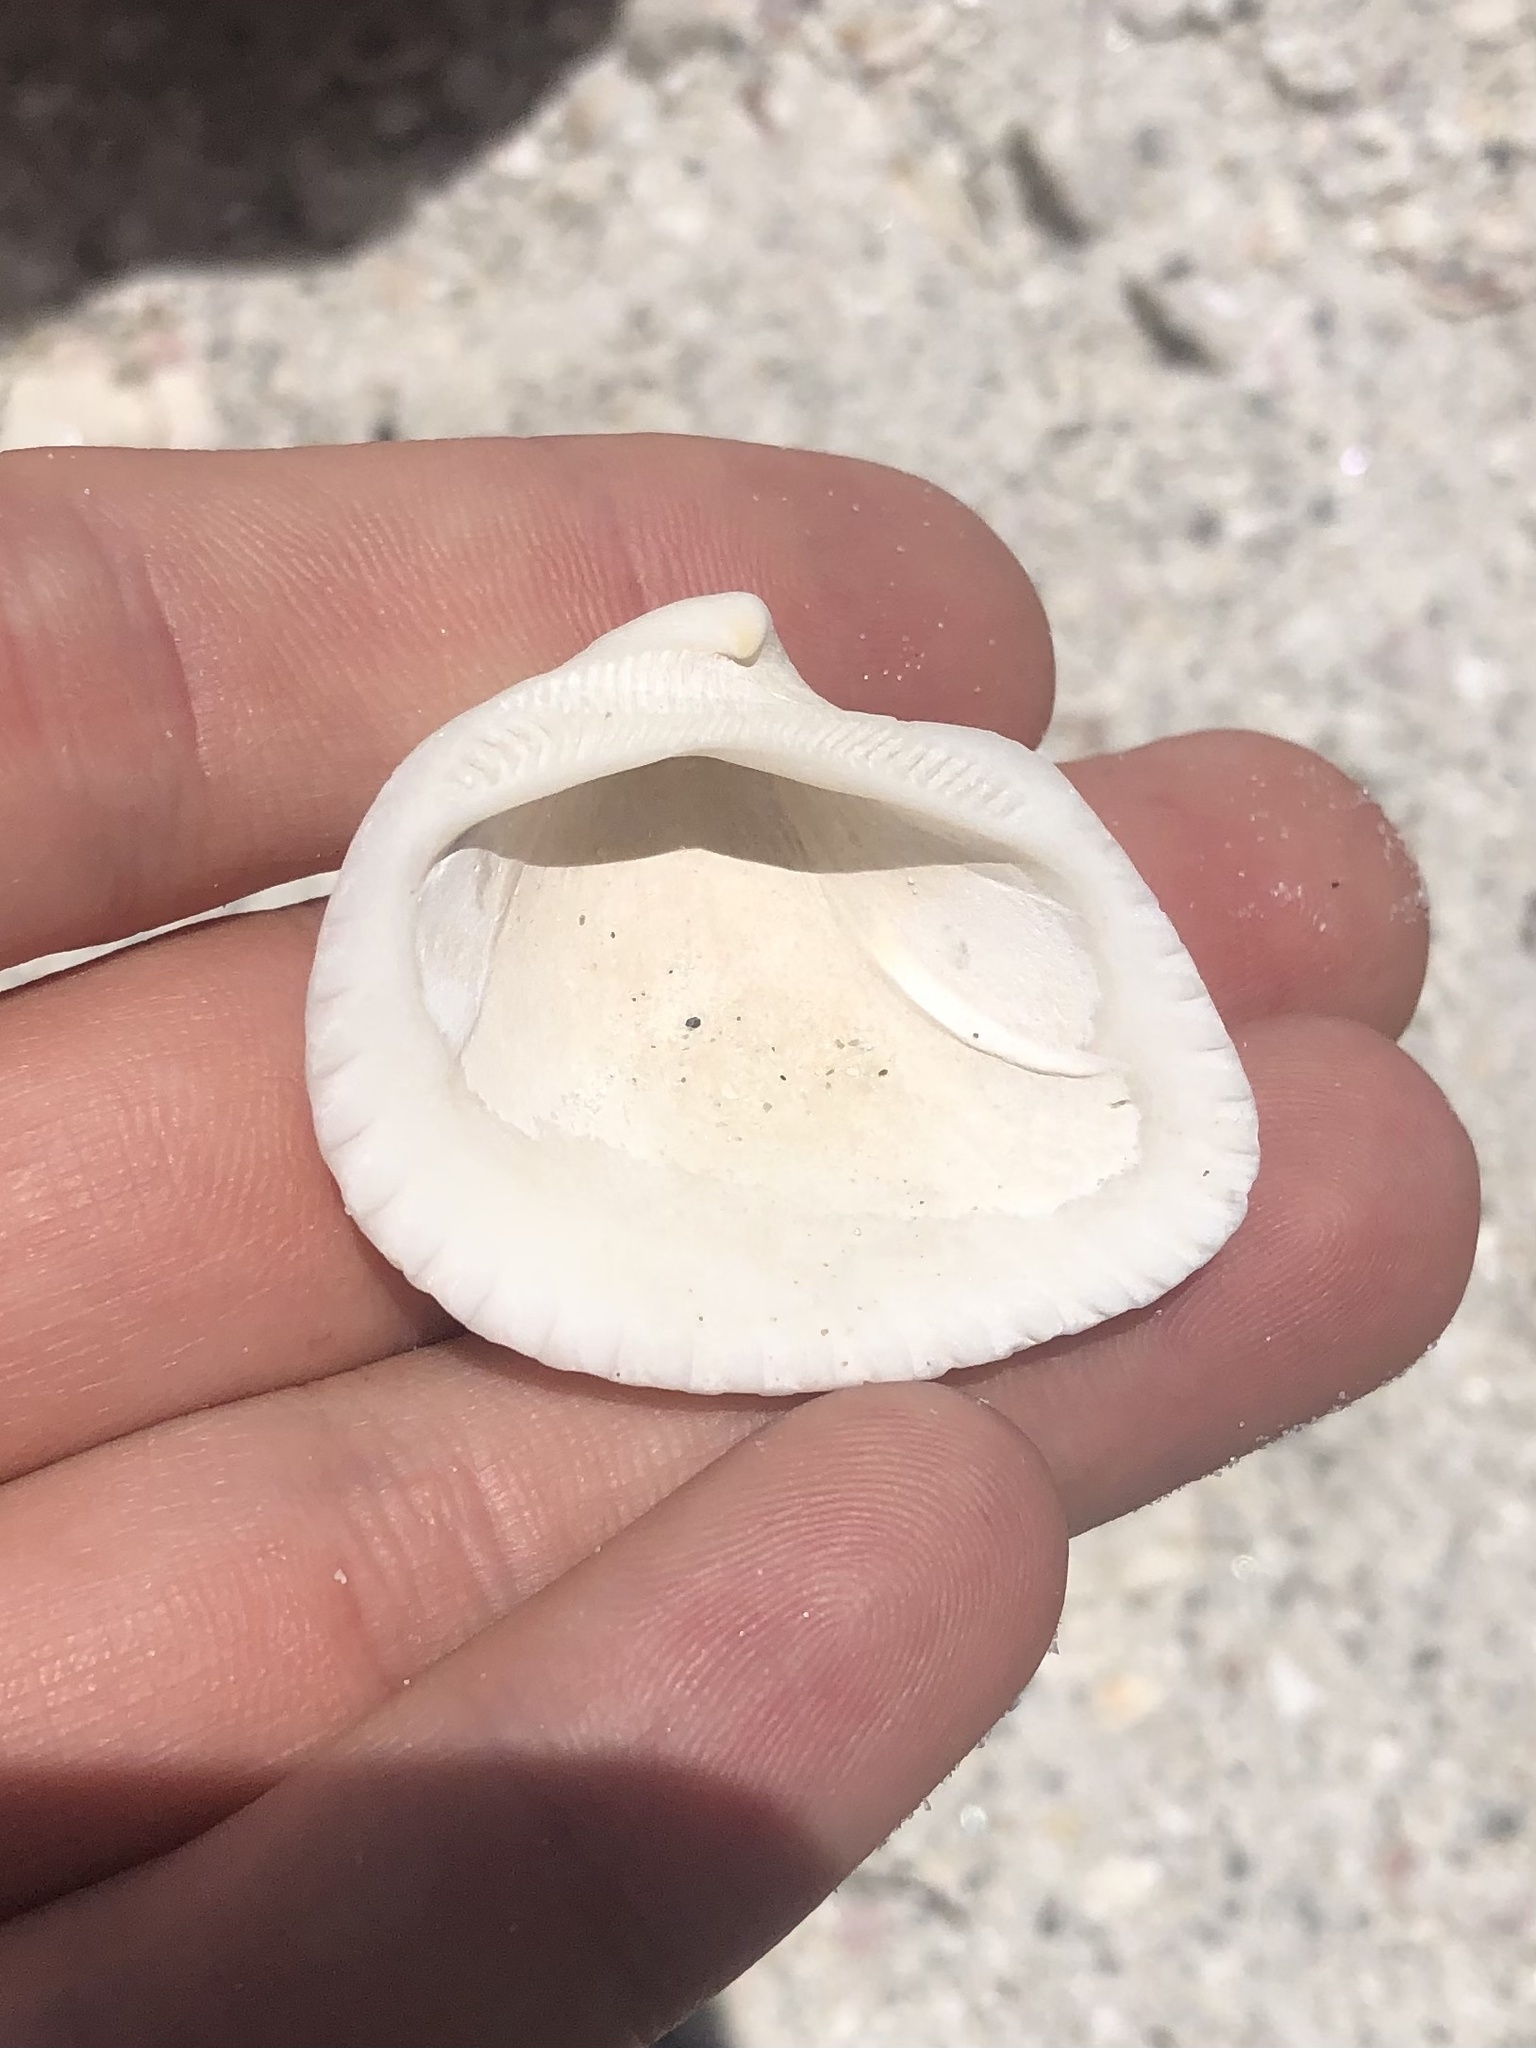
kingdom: Animalia
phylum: Mollusca
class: Bivalvia
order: Arcida
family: Noetiidae
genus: Noetia
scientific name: Noetia ponderosa
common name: Ponderous ark
